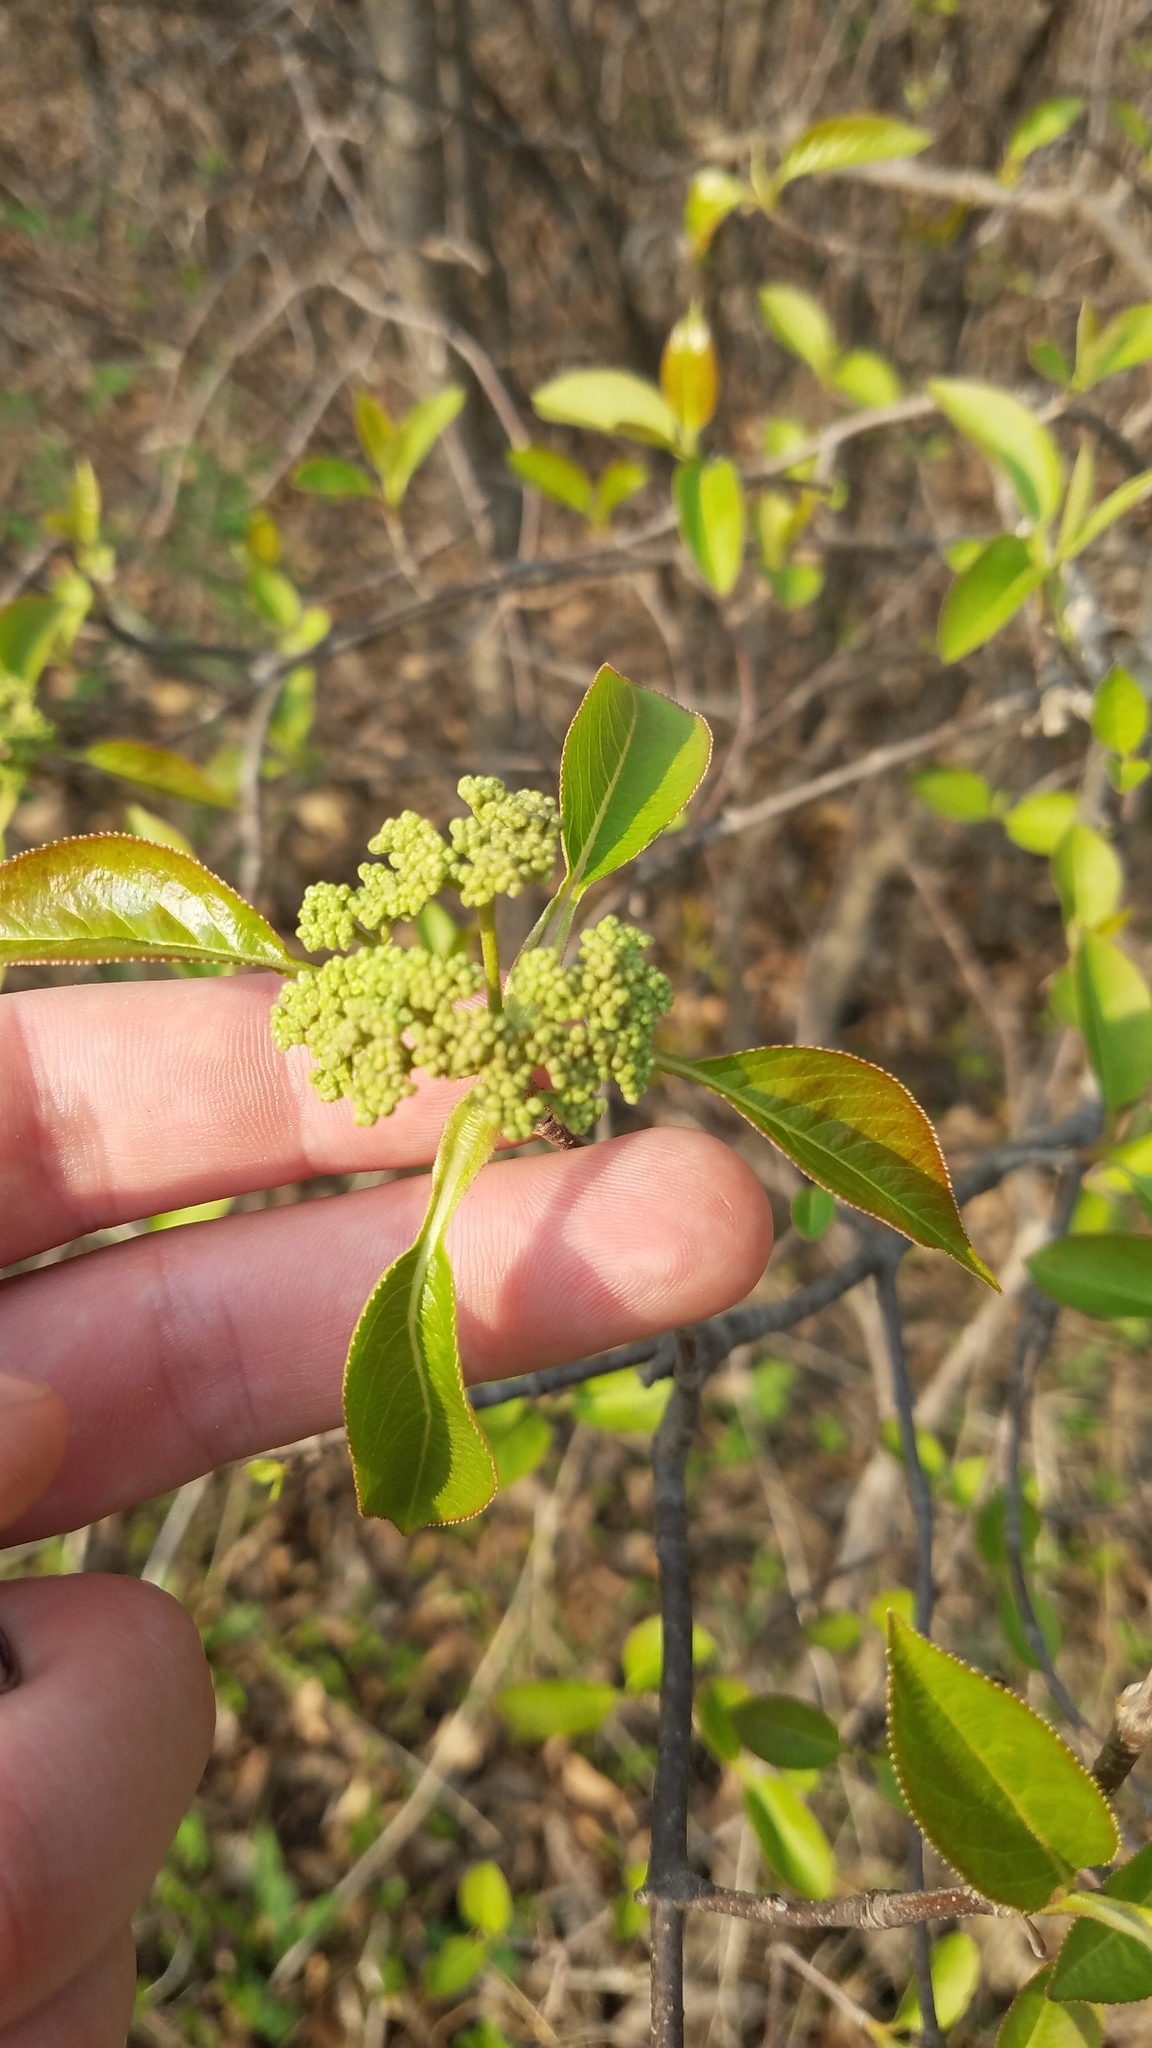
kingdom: Plantae
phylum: Tracheophyta
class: Magnoliopsida
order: Dipsacales
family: Viburnaceae
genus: Viburnum
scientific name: Viburnum lentago
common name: Black haw
